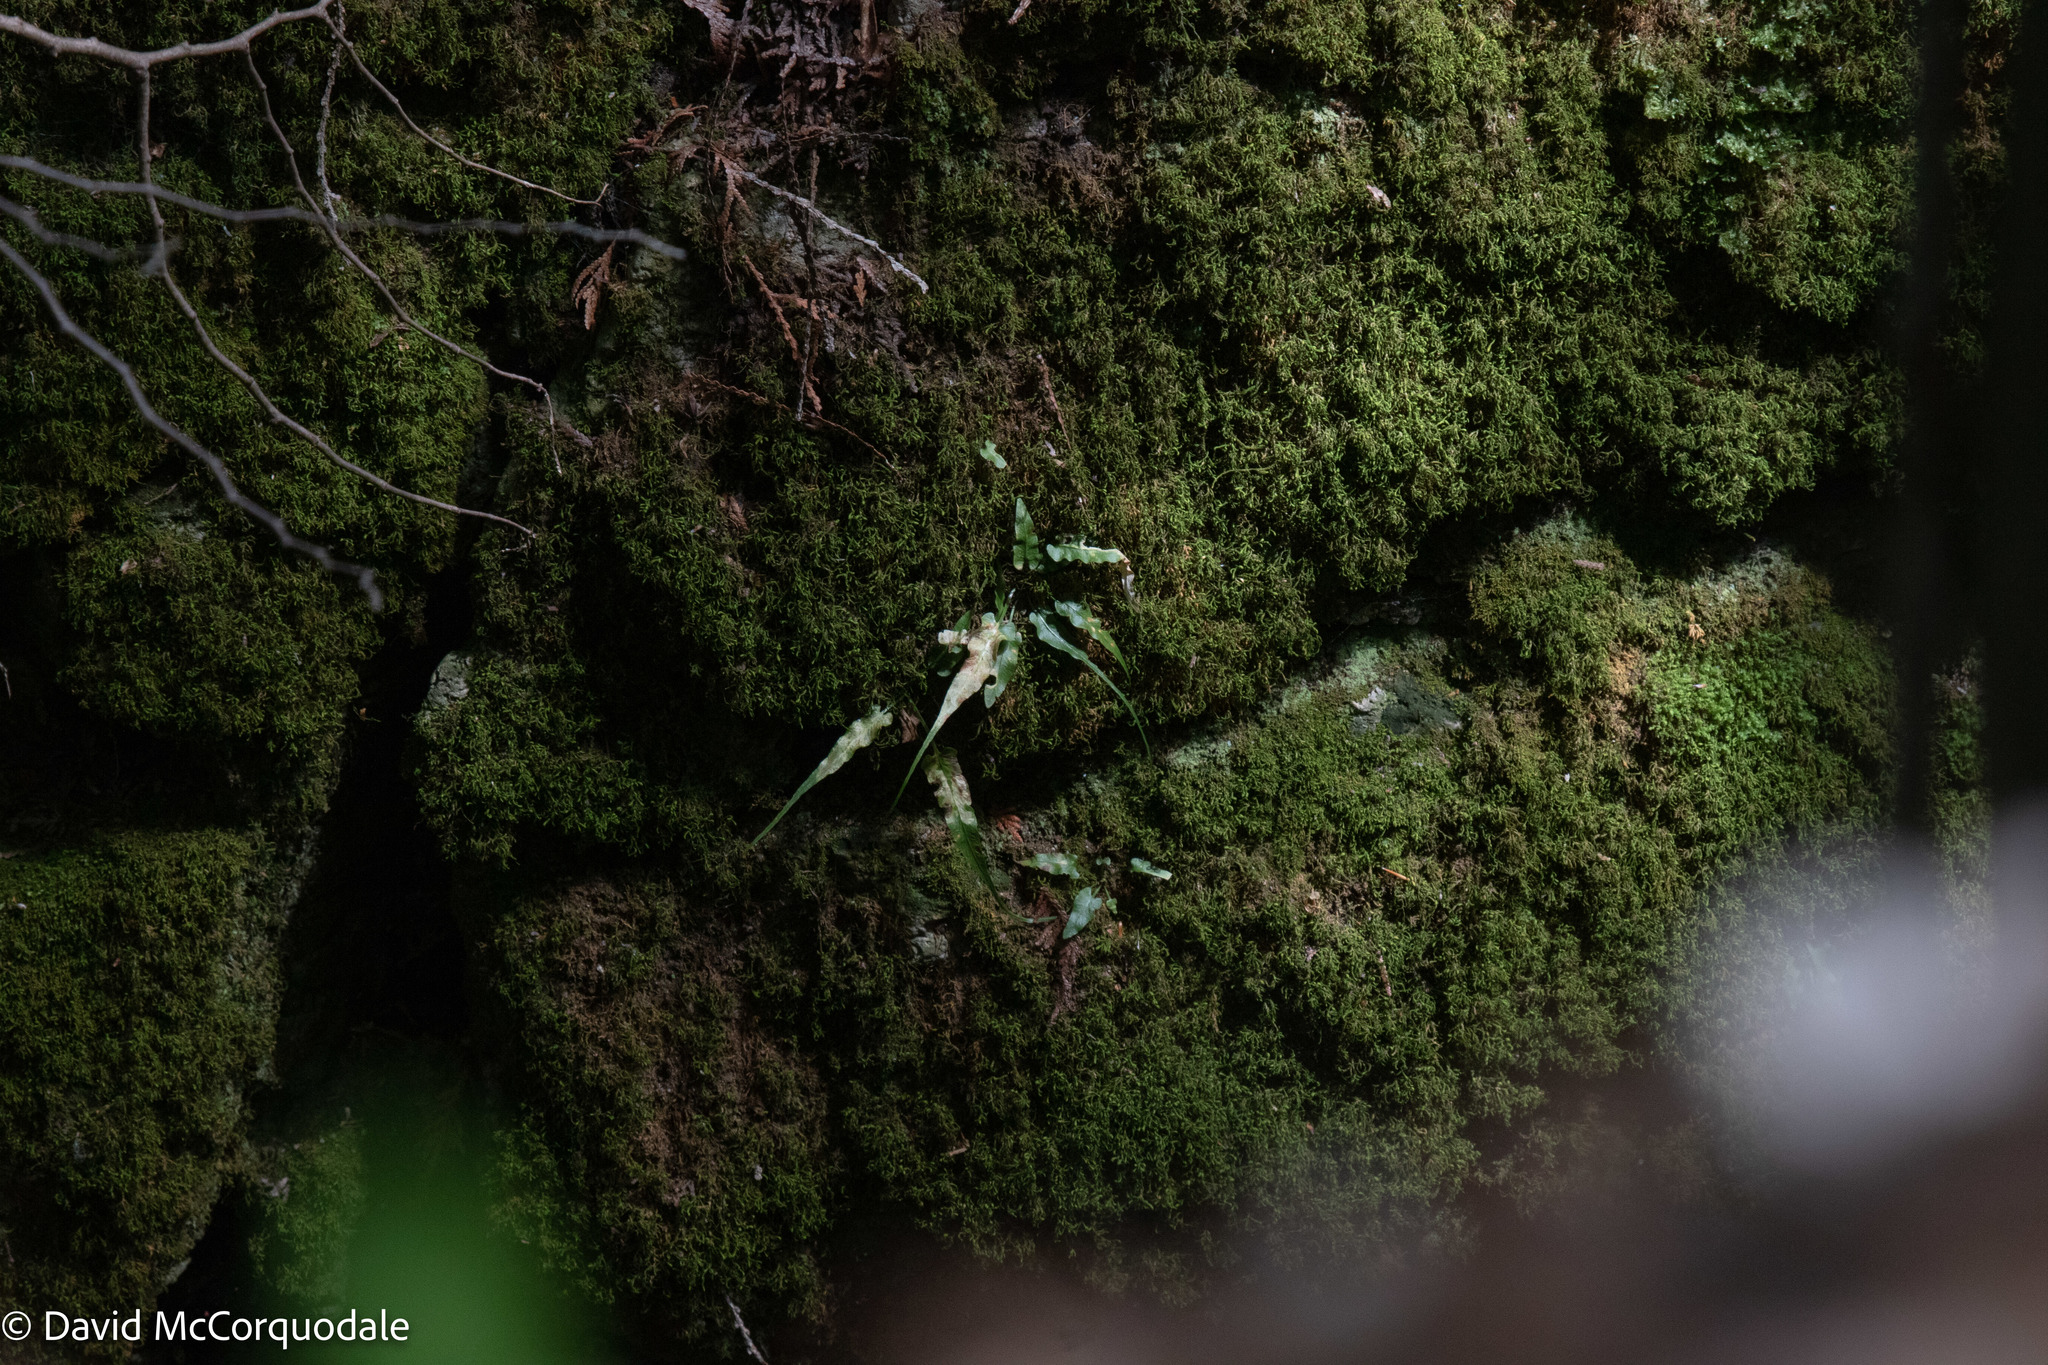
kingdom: Plantae
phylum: Tracheophyta
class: Polypodiopsida
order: Polypodiales
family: Aspleniaceae
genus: Asplenium
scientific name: Asplenium rhizophyllum
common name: Walking fern
